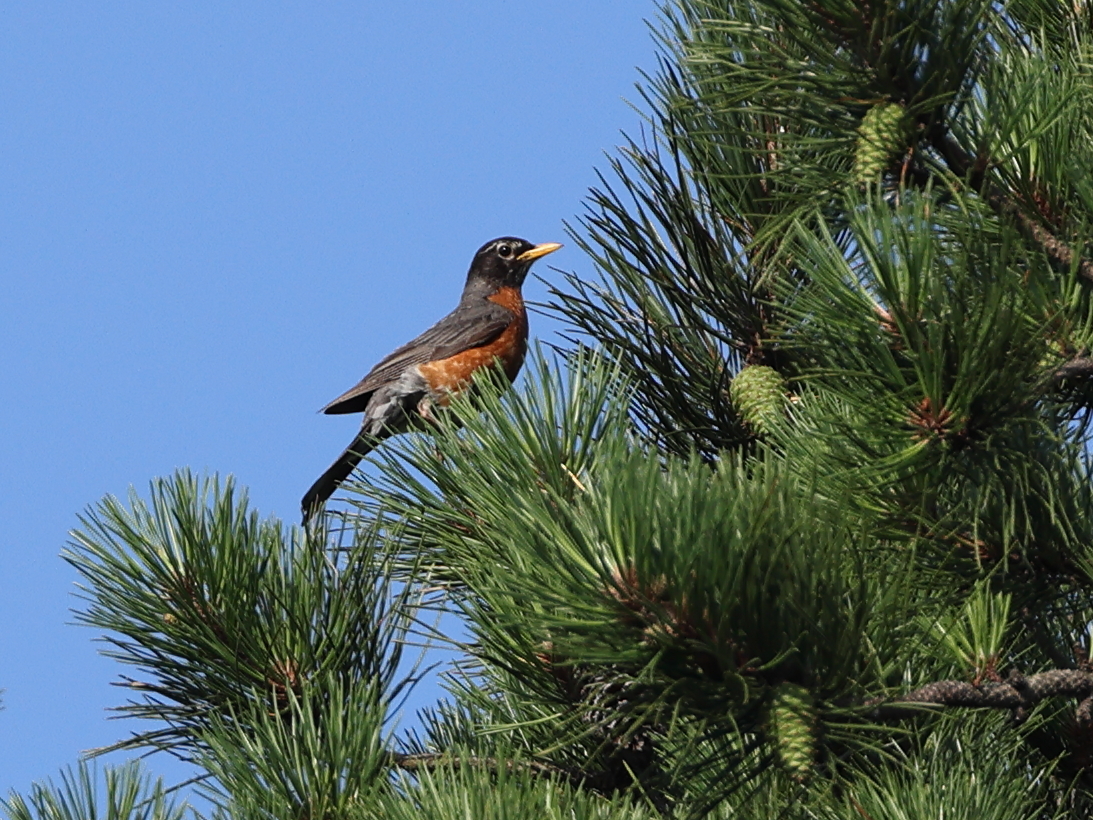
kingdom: Animalia
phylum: Chordata
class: Aves
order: Passeriformes
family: Turdidae
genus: Turdus
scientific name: Turdus migratorius
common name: American robin
